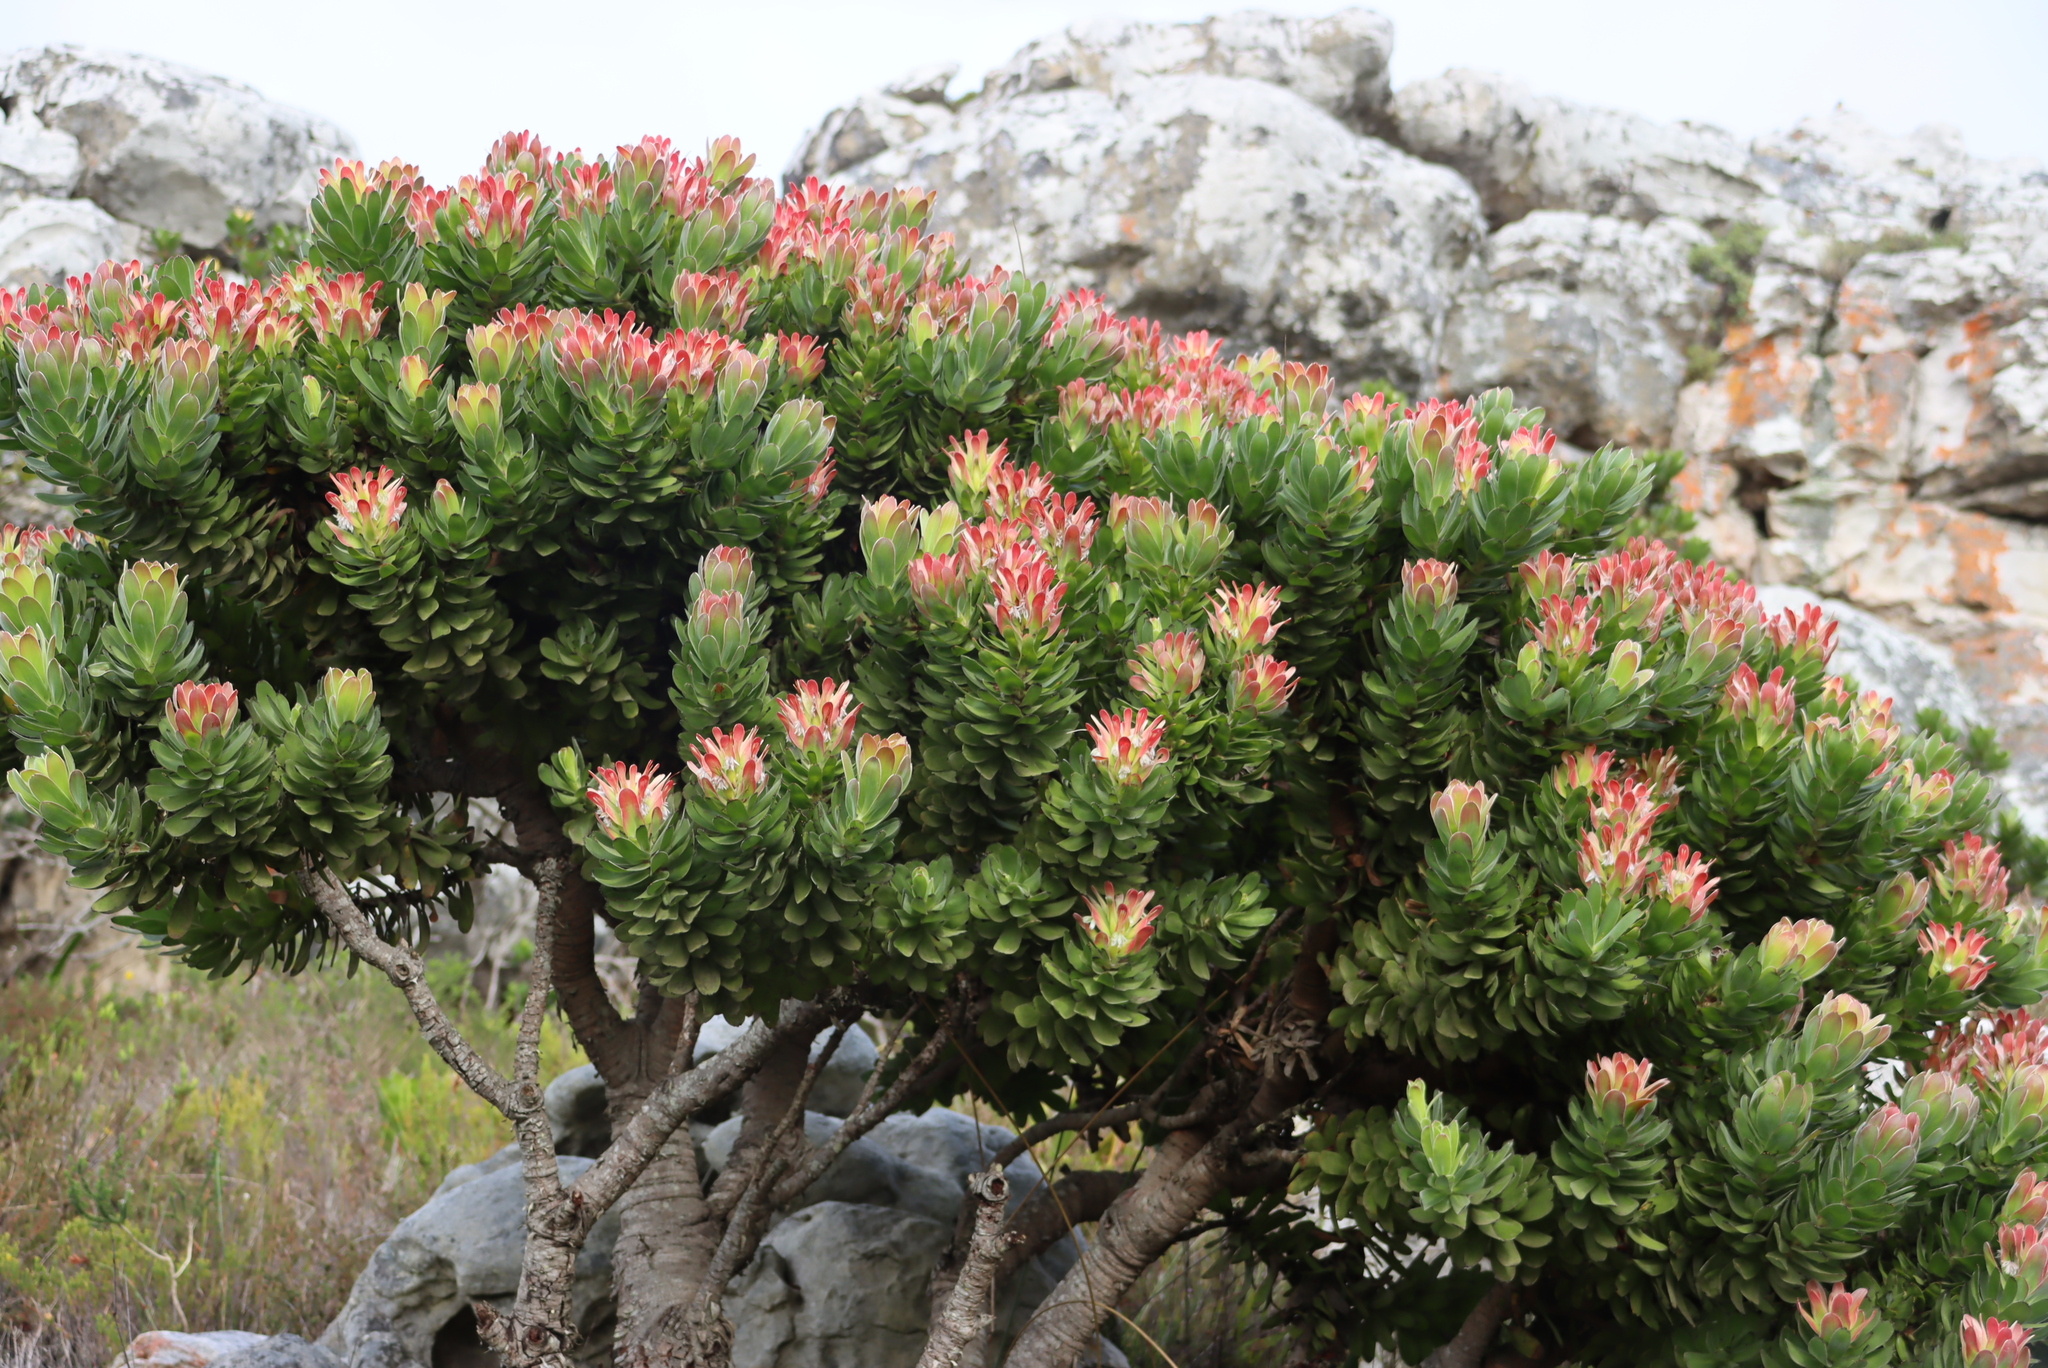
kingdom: Plantae
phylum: Tracheophyta
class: Magnoliopsida
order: Proteales
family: Proteaceae
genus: Mimetes
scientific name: Mimetes fimbriifolius
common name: Fringed bottlebrush
